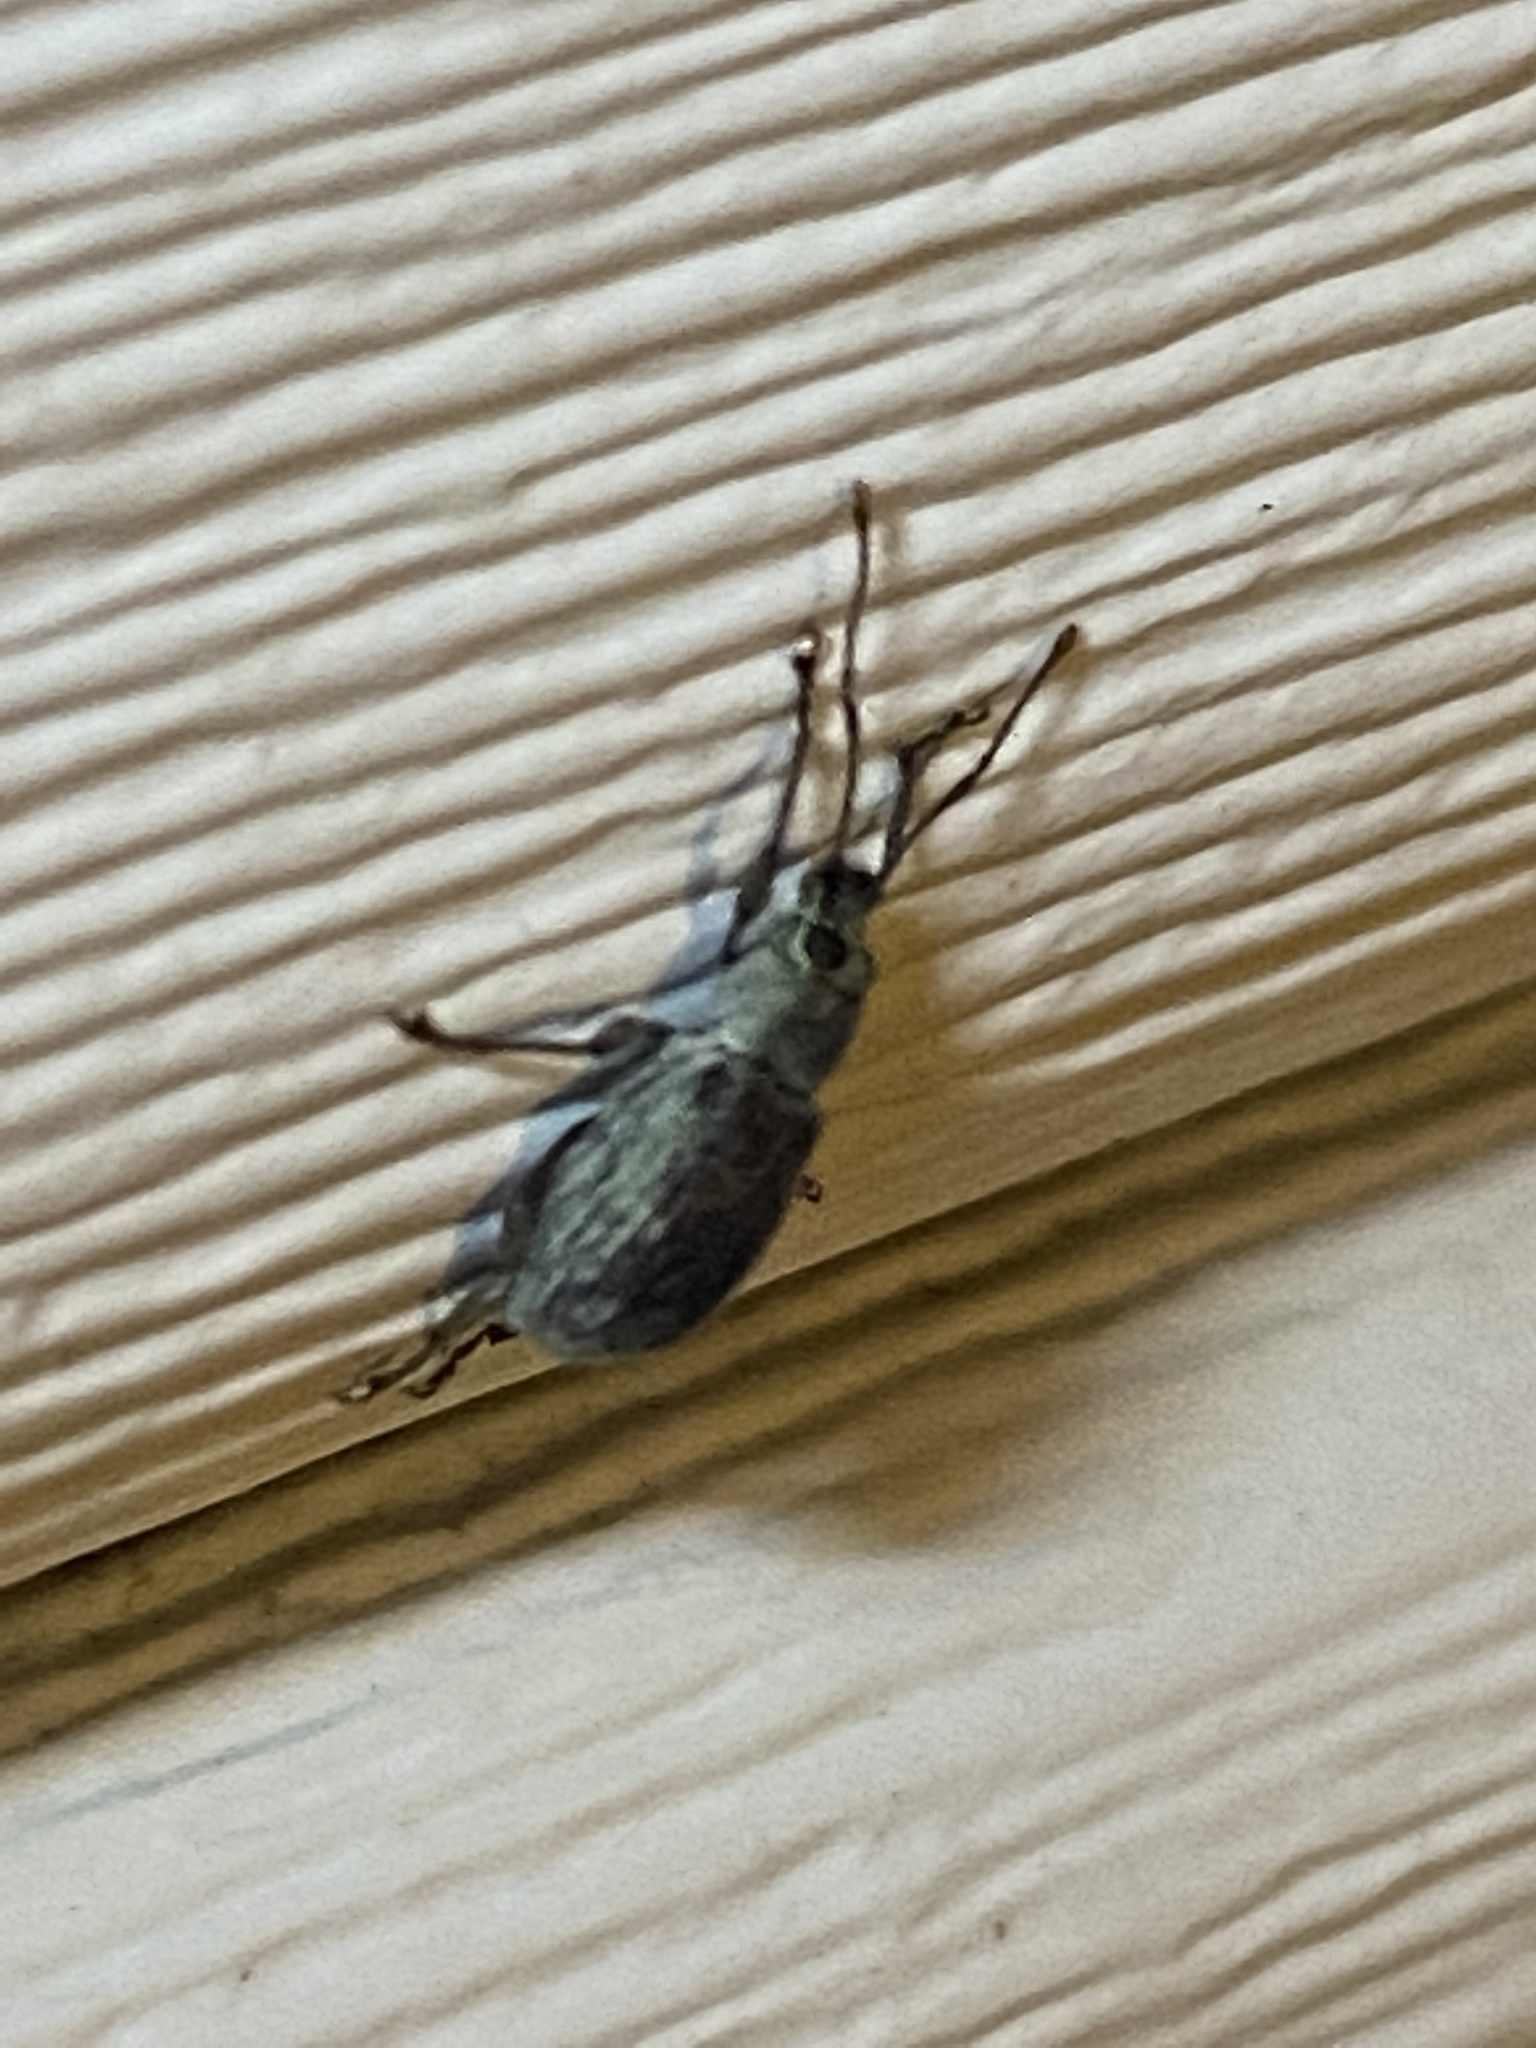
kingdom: Animalia
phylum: Arthropoda
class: Insecta
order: Coleoptera
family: Curculionidae
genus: Cyrtepistomus
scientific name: Cyrtepistomus castaneus
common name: Weevil
